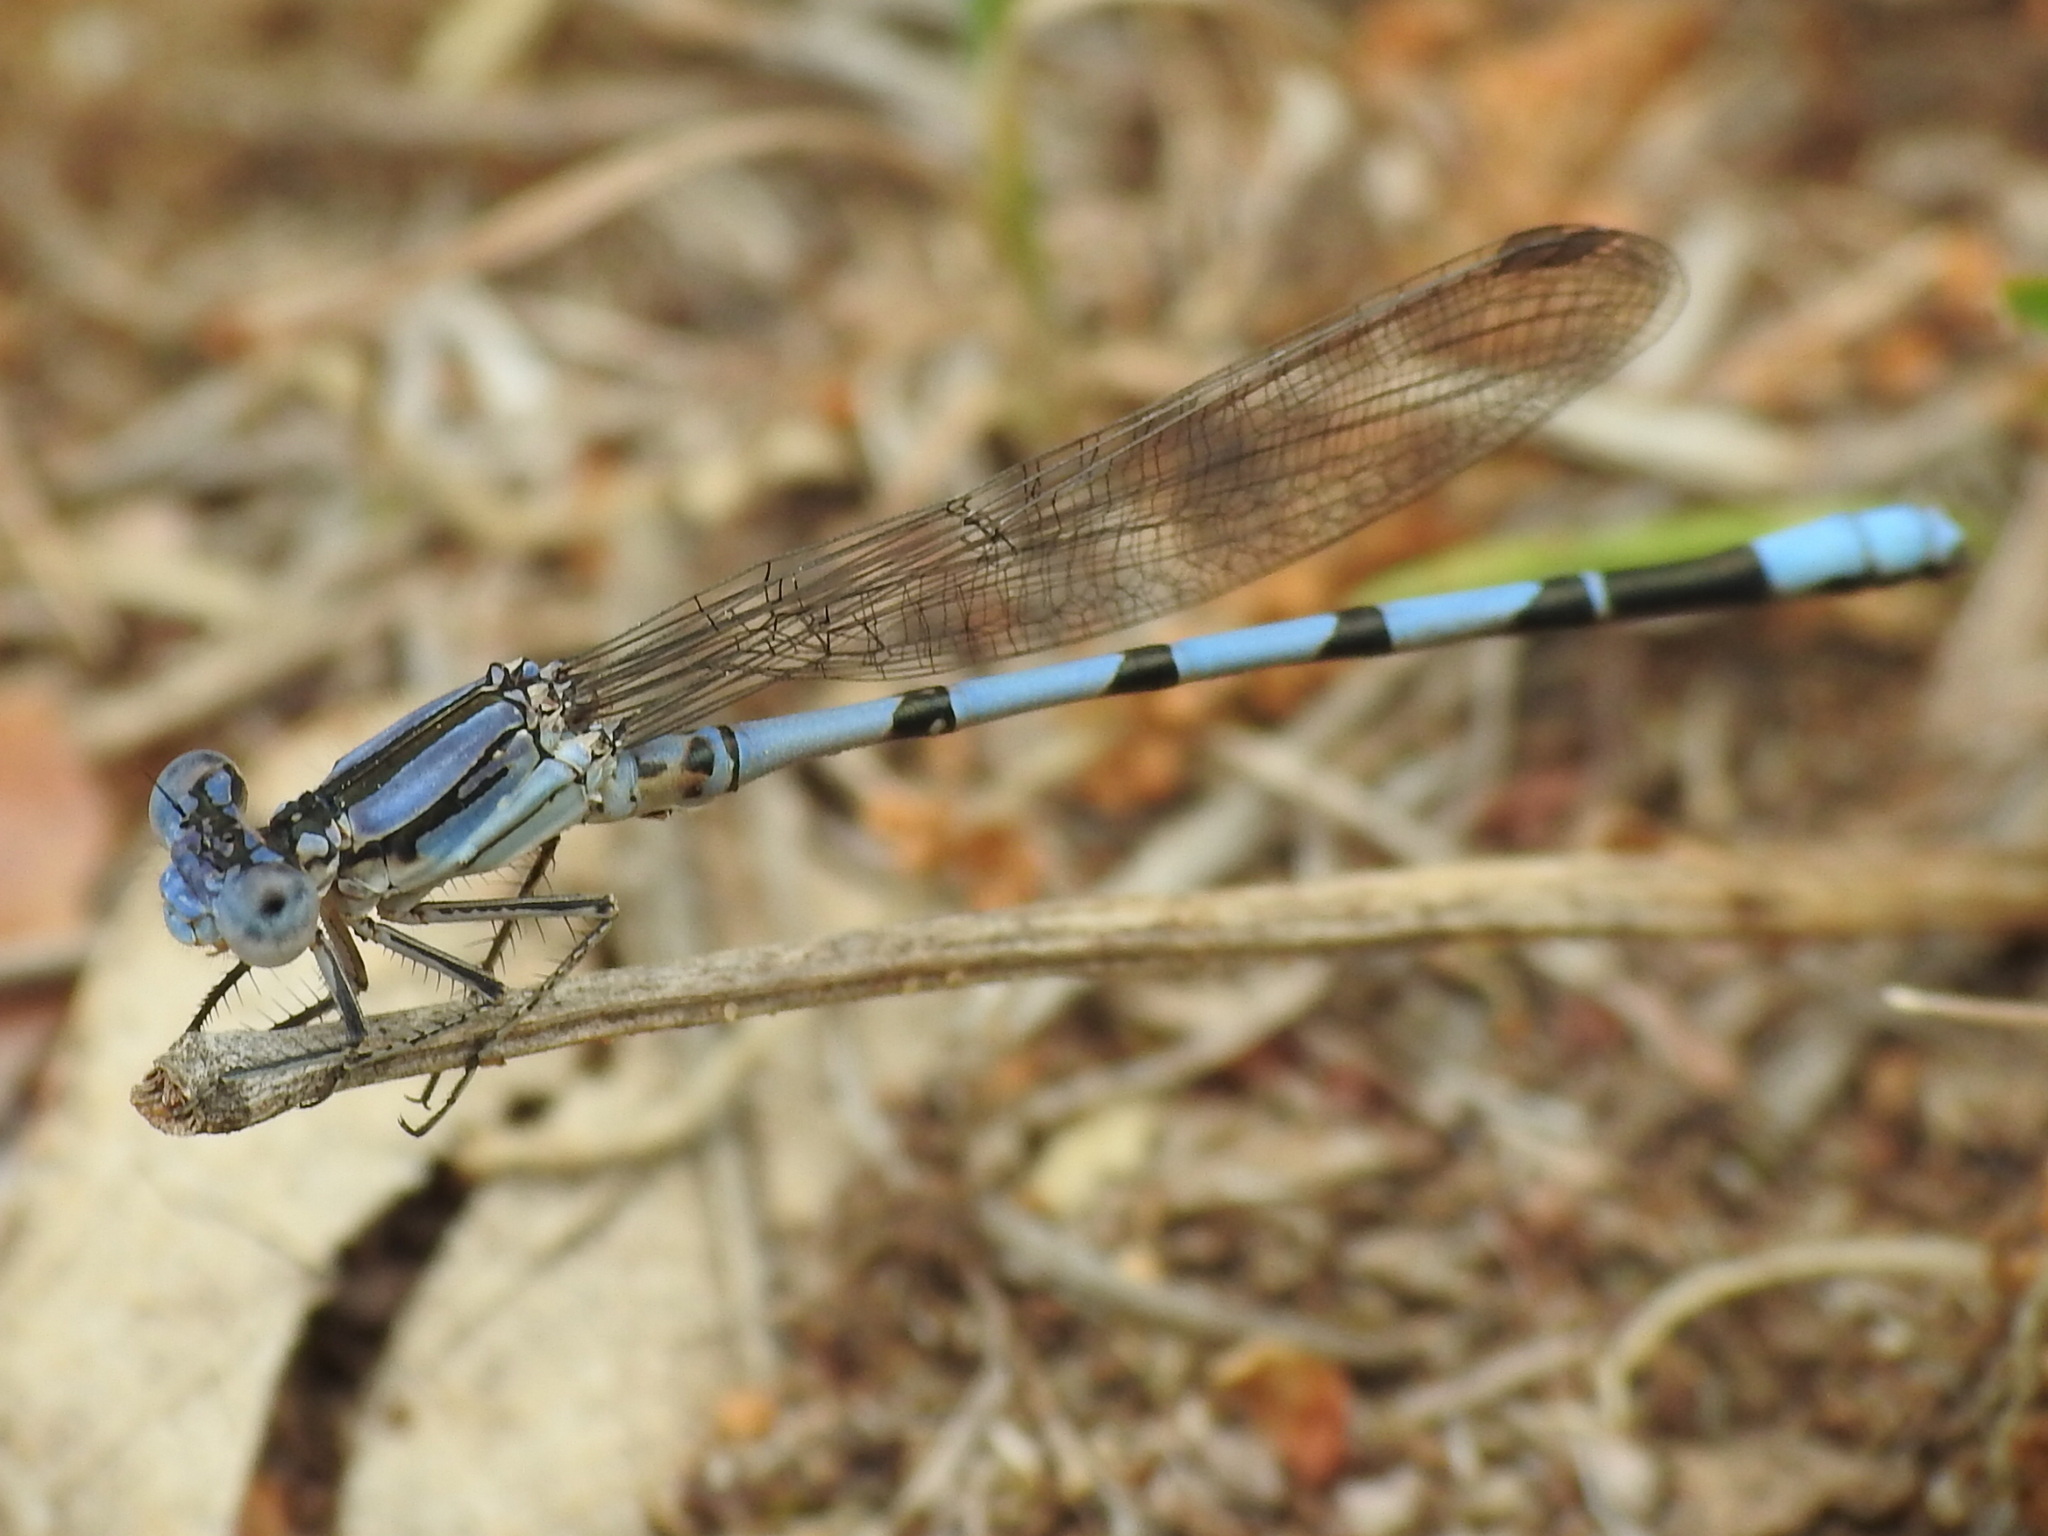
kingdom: Animalia
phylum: Arthropoda
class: Insecta
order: Odonata
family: Coenagrionidae
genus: Argia
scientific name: Argia nahuana
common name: Aztec dancer
